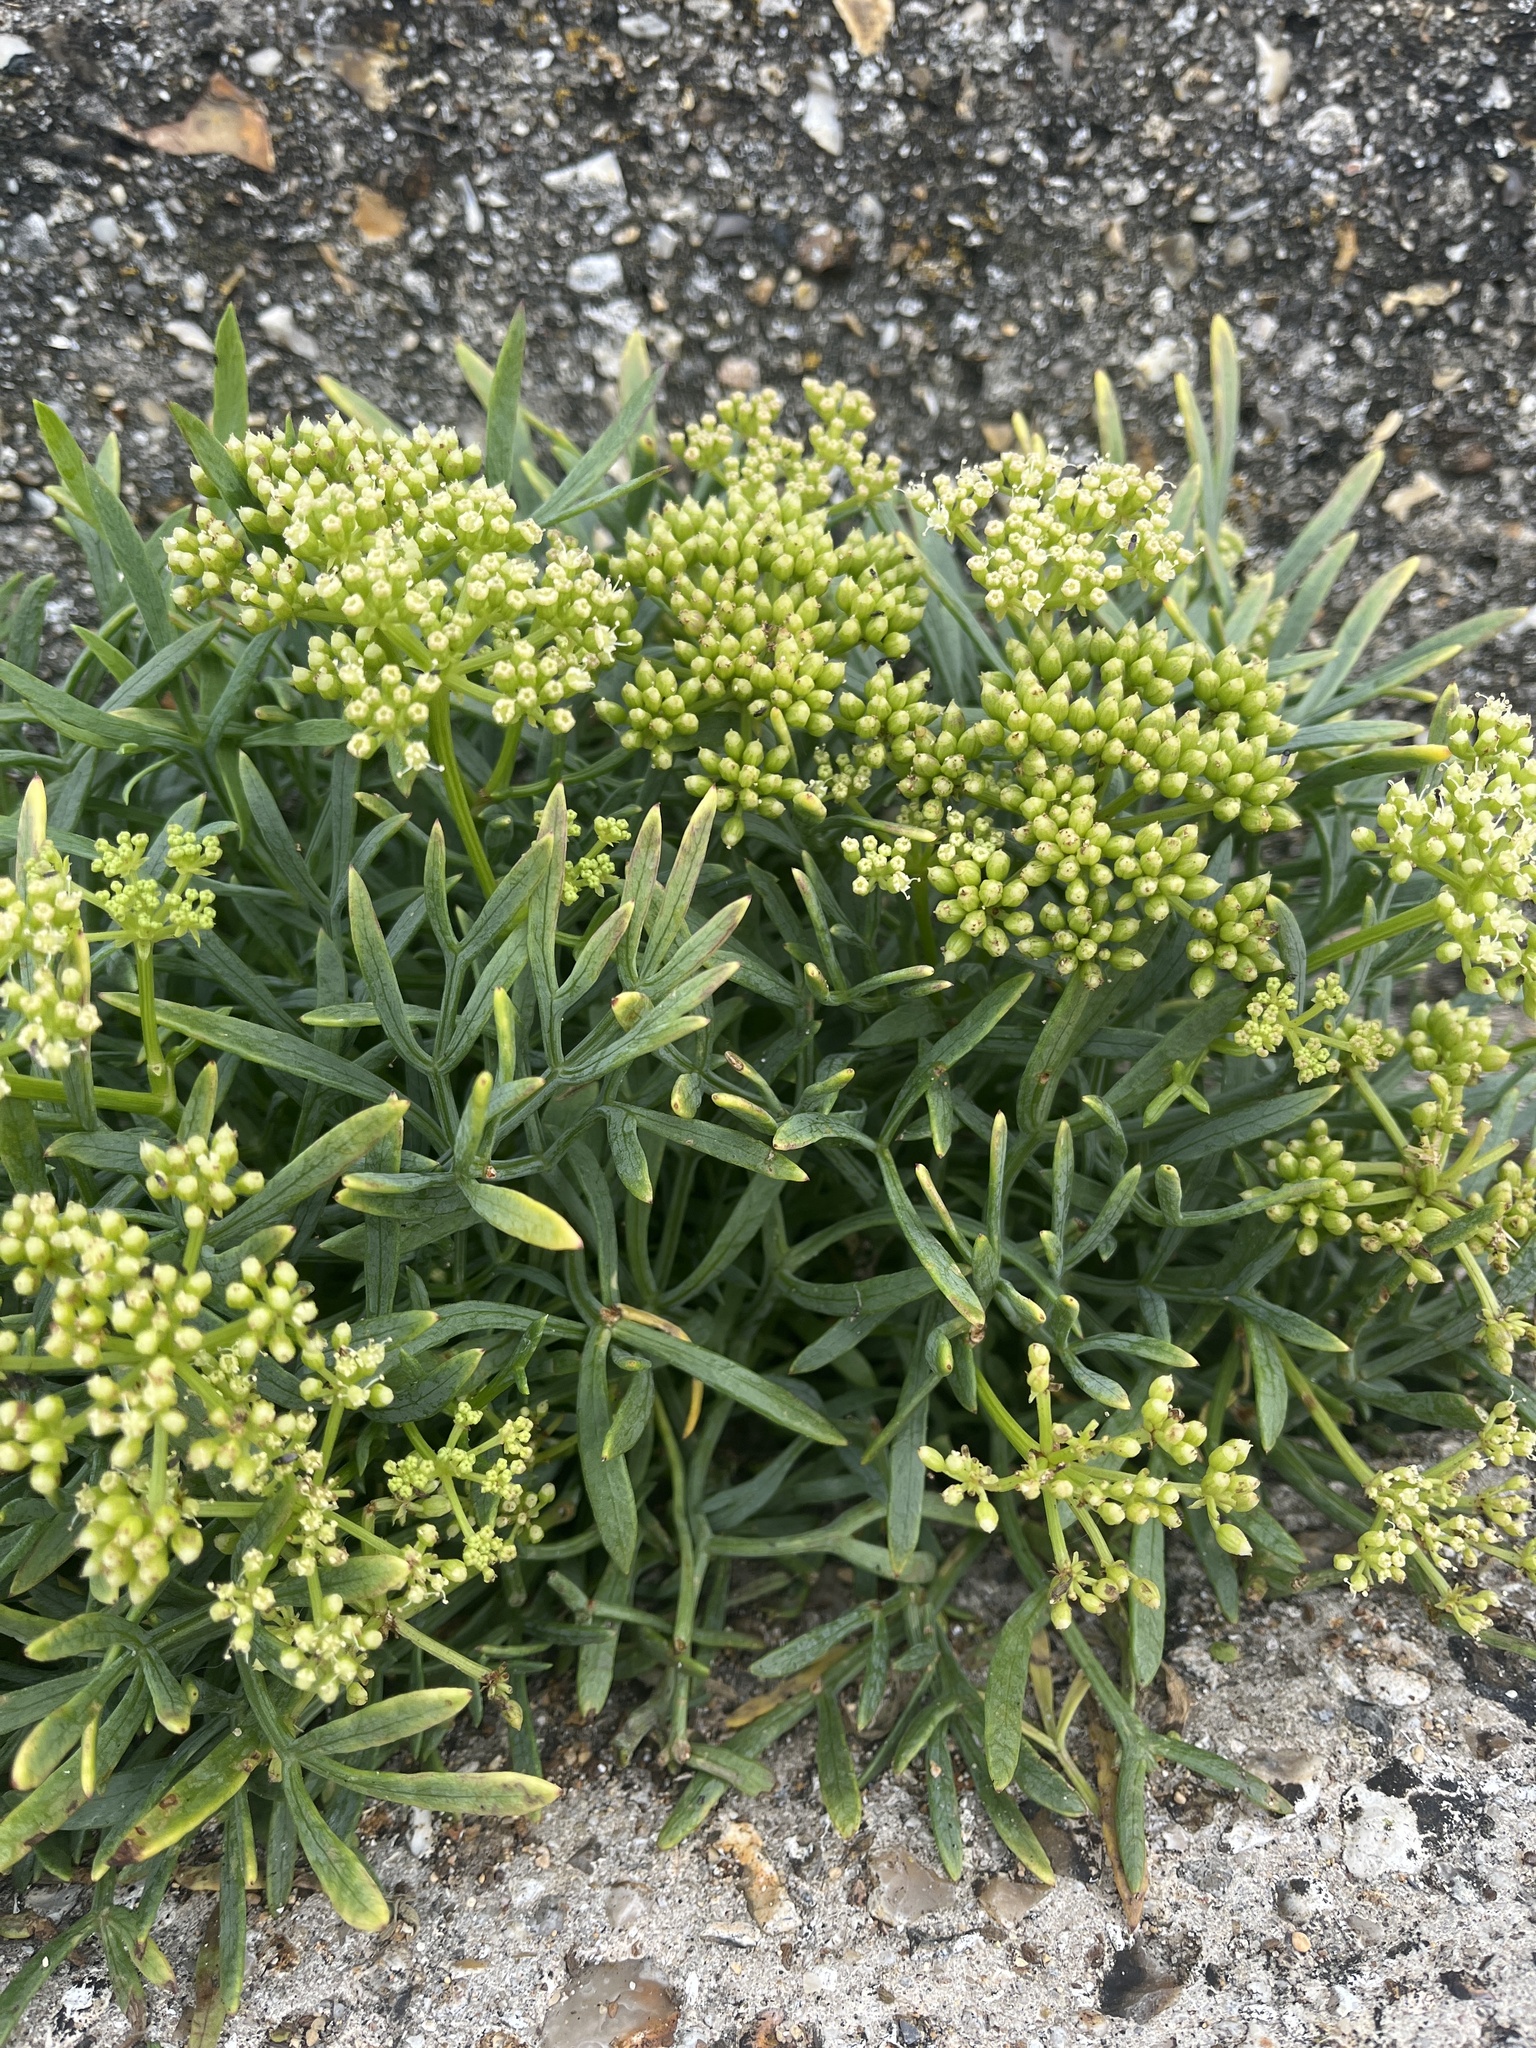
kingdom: Plantae
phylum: Tracheophyta
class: Magnoliopsida
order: Apiales
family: Apiaceae
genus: Crithmum
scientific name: Crithmum maritimum
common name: Rock samphire
